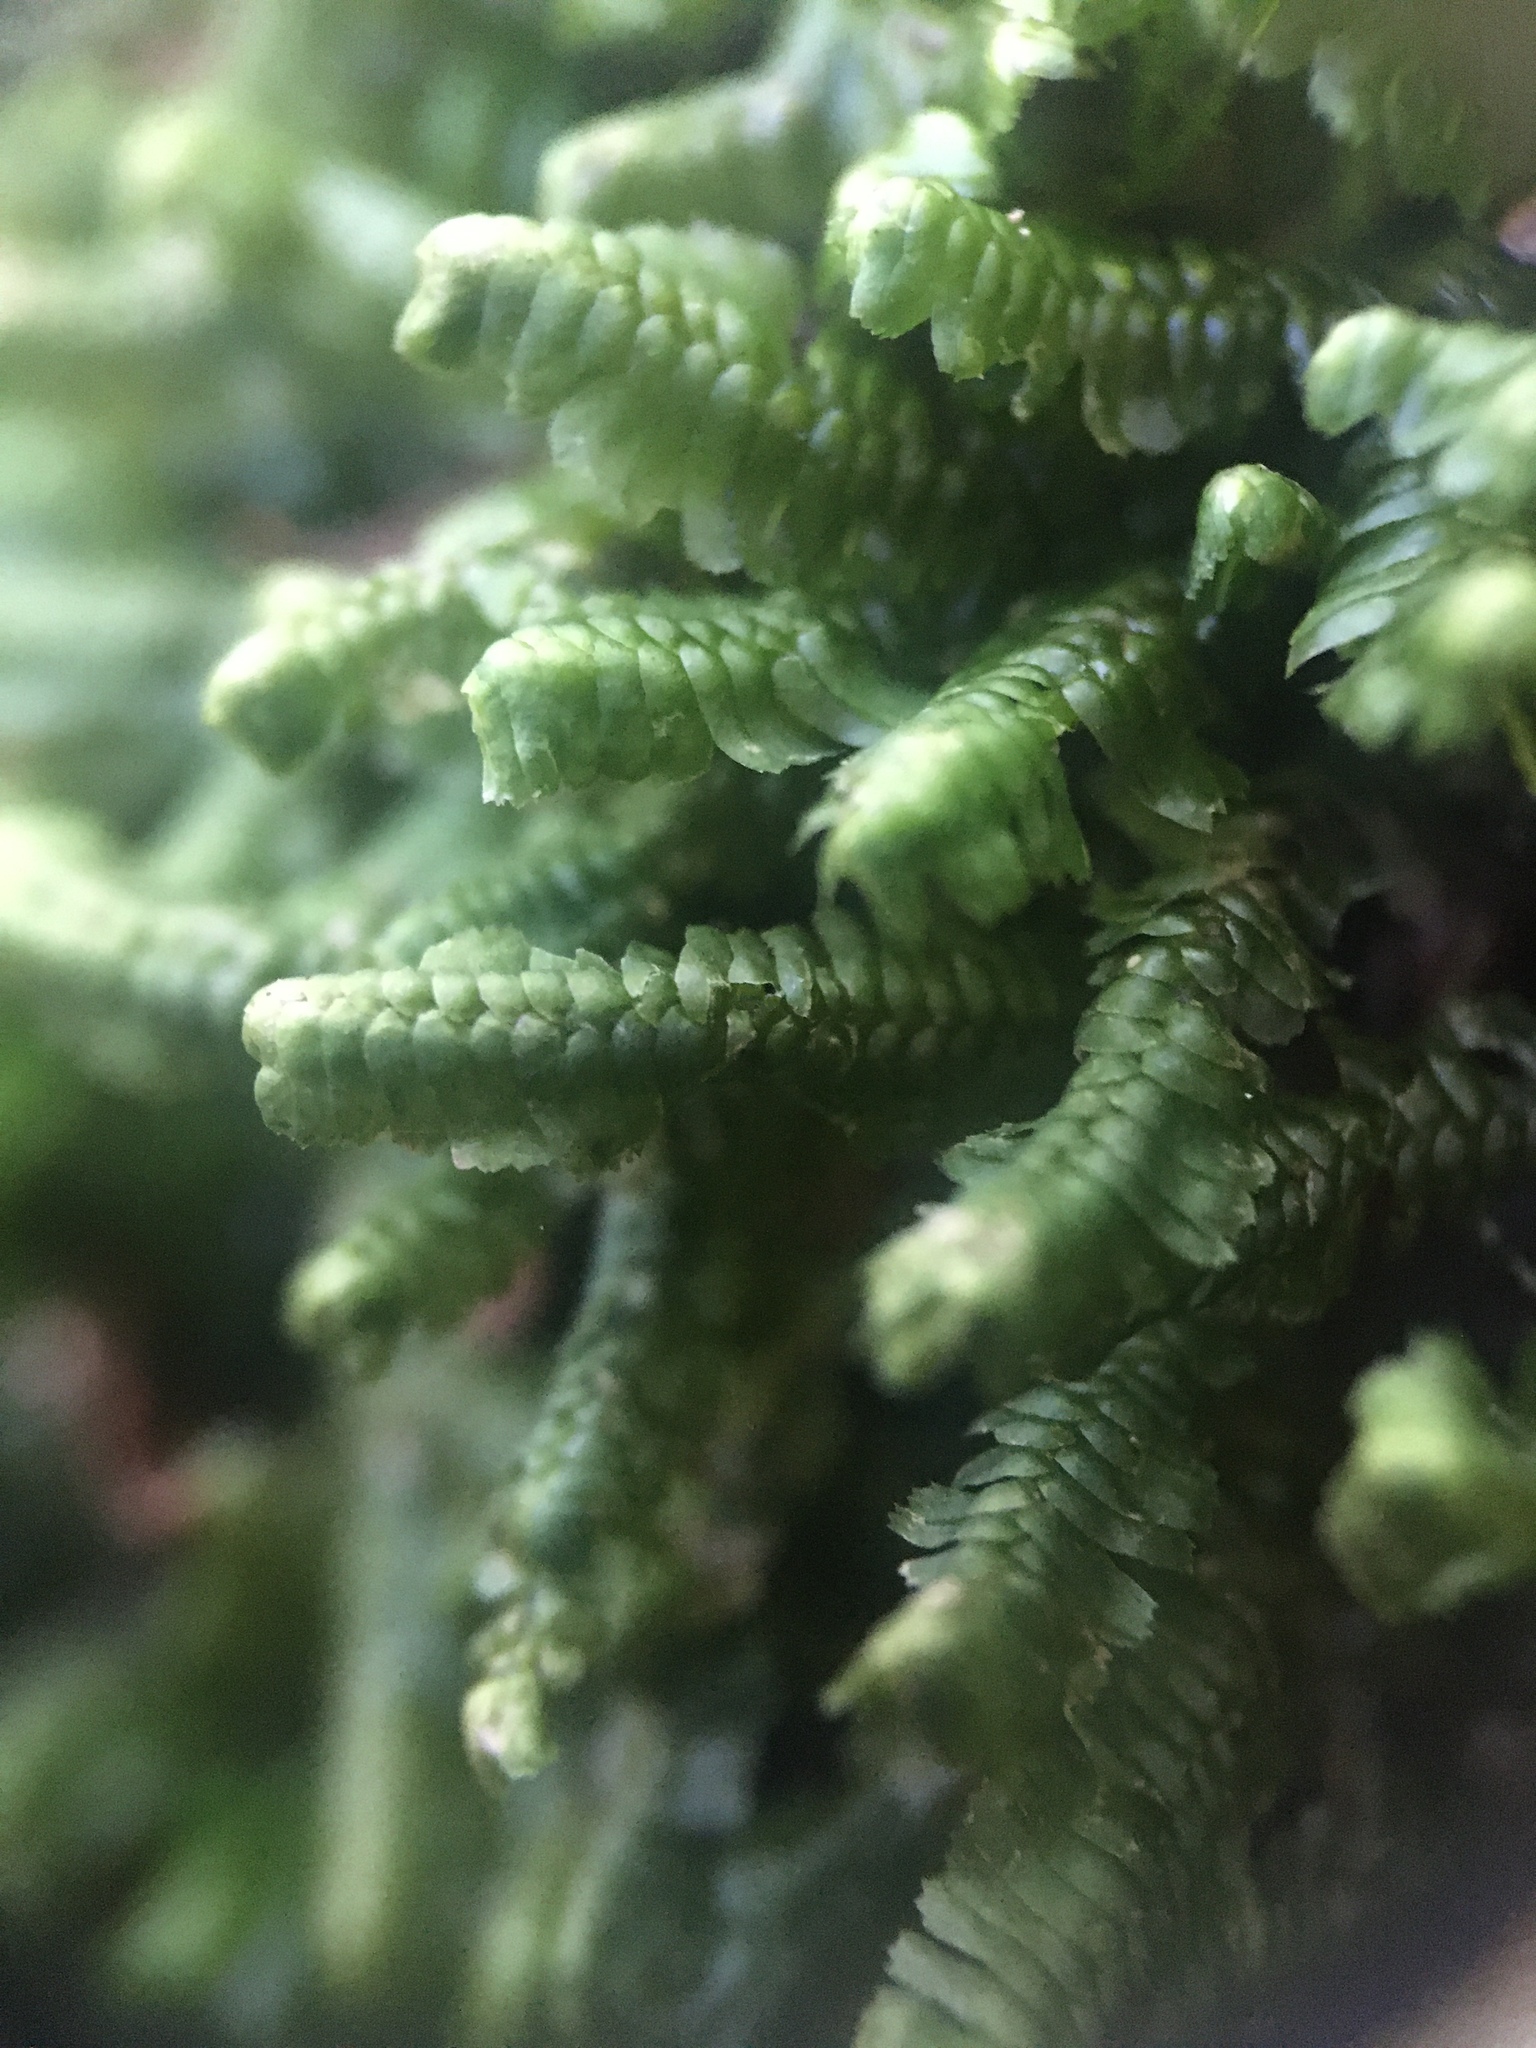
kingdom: Plantae
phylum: Marchantiophyta
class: Jungermanniopsida
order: Jungermanniales
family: Lepidoziaceae
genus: Bazzania
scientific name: Bazzania trilobata
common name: Three-lobed whipwort
